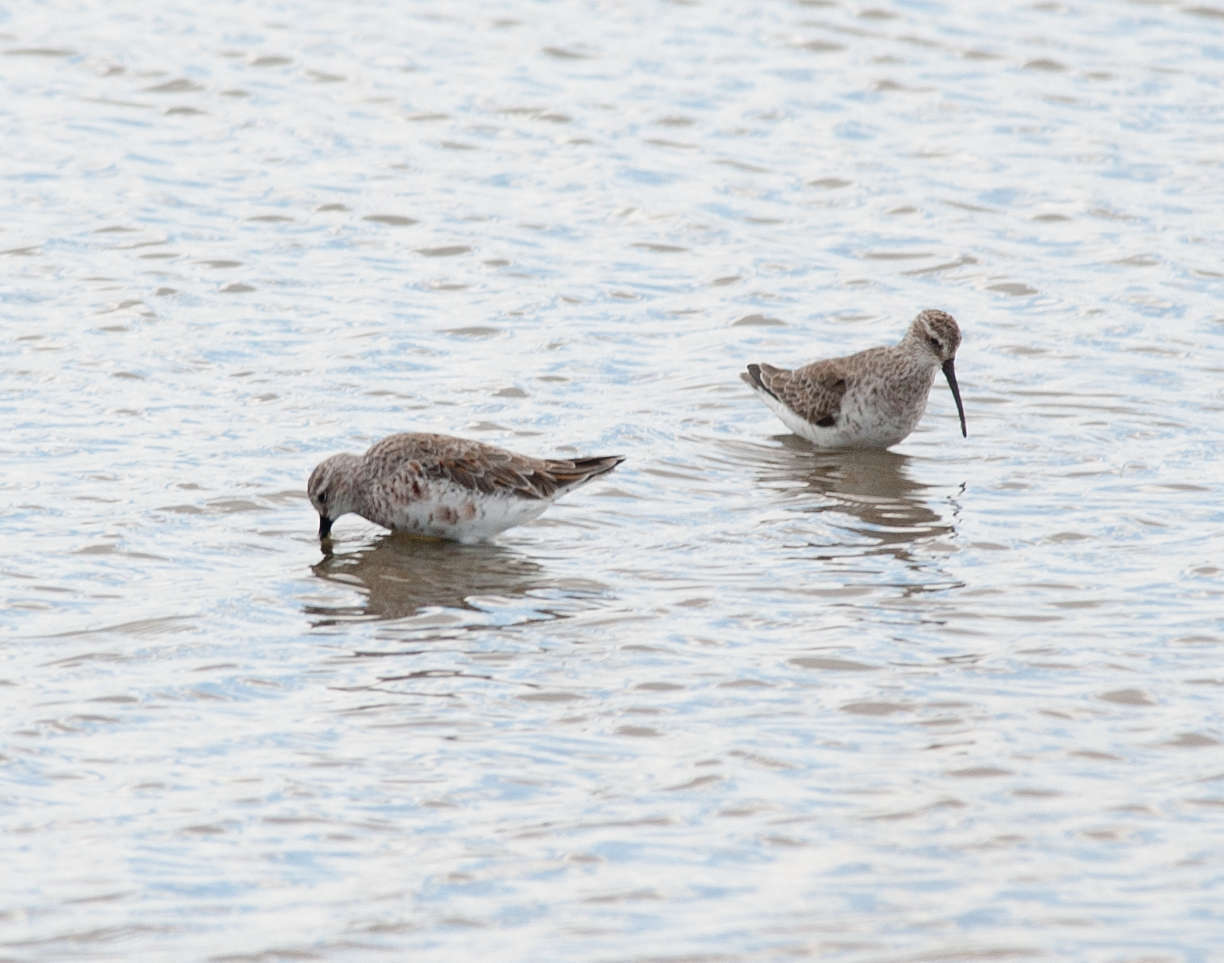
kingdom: Animalia
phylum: Chordata
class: Aves
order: Charadriiformes
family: Scolopacidae
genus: Calidris
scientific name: Calidris ferruginea
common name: Curlew sandpiper
